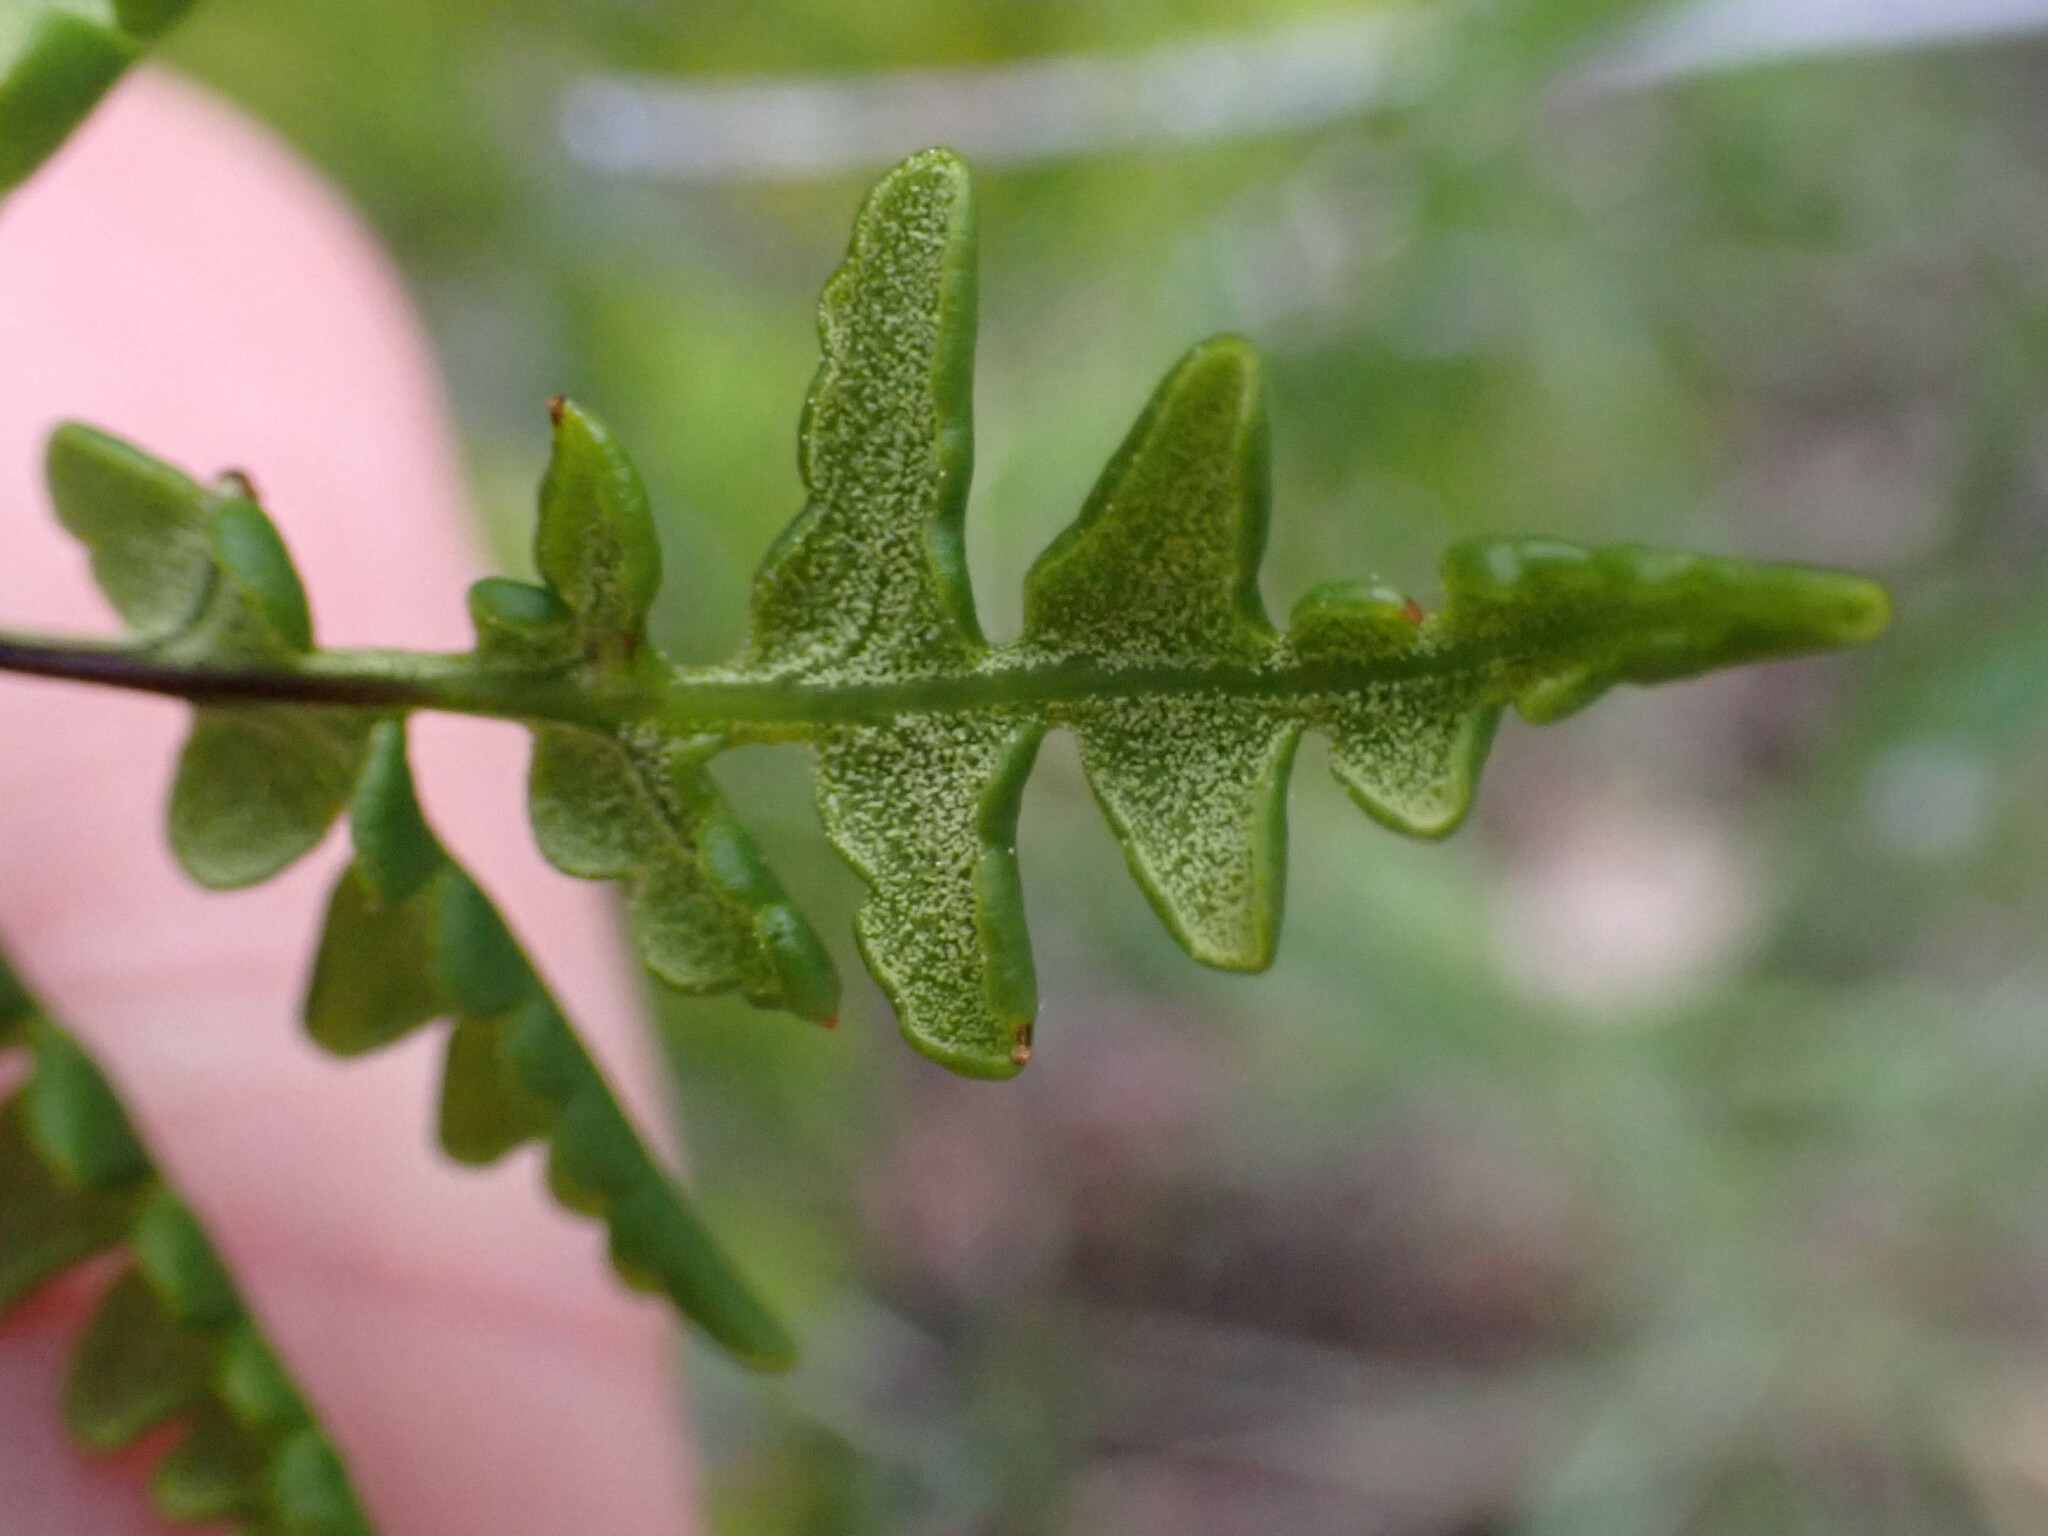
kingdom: Plantae
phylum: Tracheophyta
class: Polypodiopsida
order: Polypodiales
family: Pteridaceae
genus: Pentagramma
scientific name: Pentagramma triangularis
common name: Gold fern
